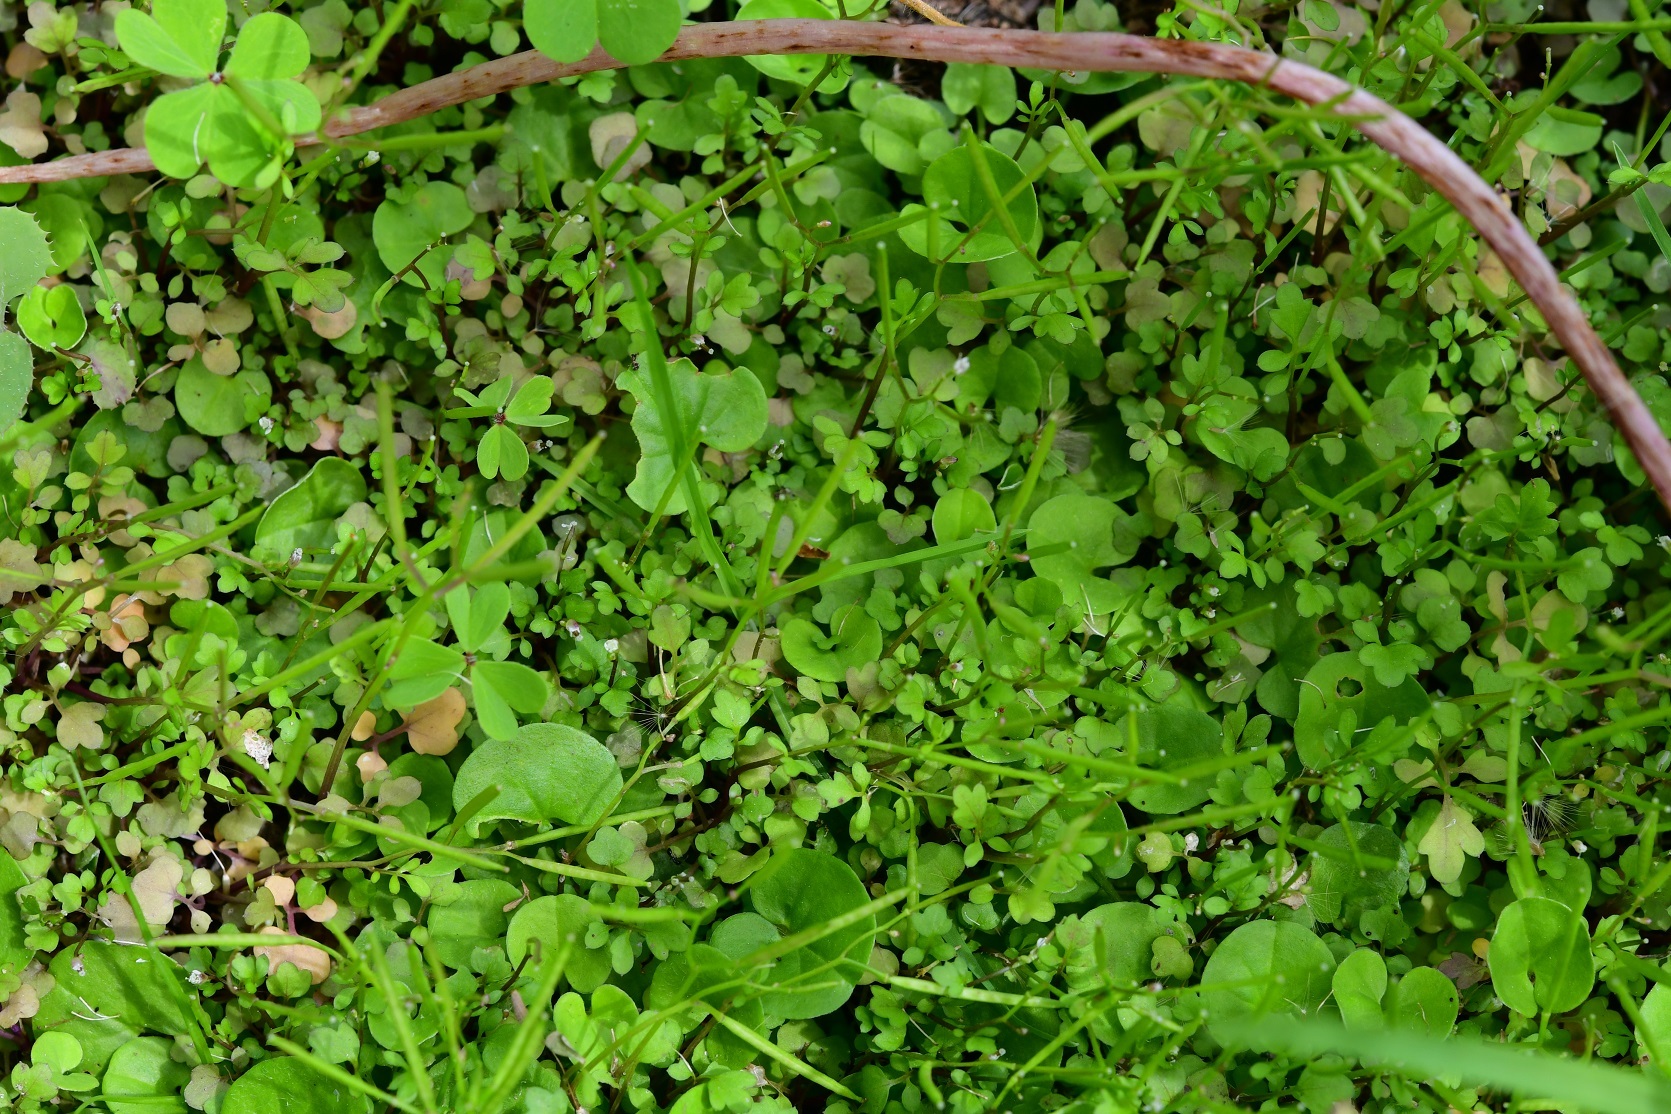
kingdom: Plantae
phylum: Tracheophyta
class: Magnoliopsida
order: Brassicales
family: Brassicaceae
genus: Cardamine
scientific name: Cardamine occulta
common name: Asian wavy bittercress
